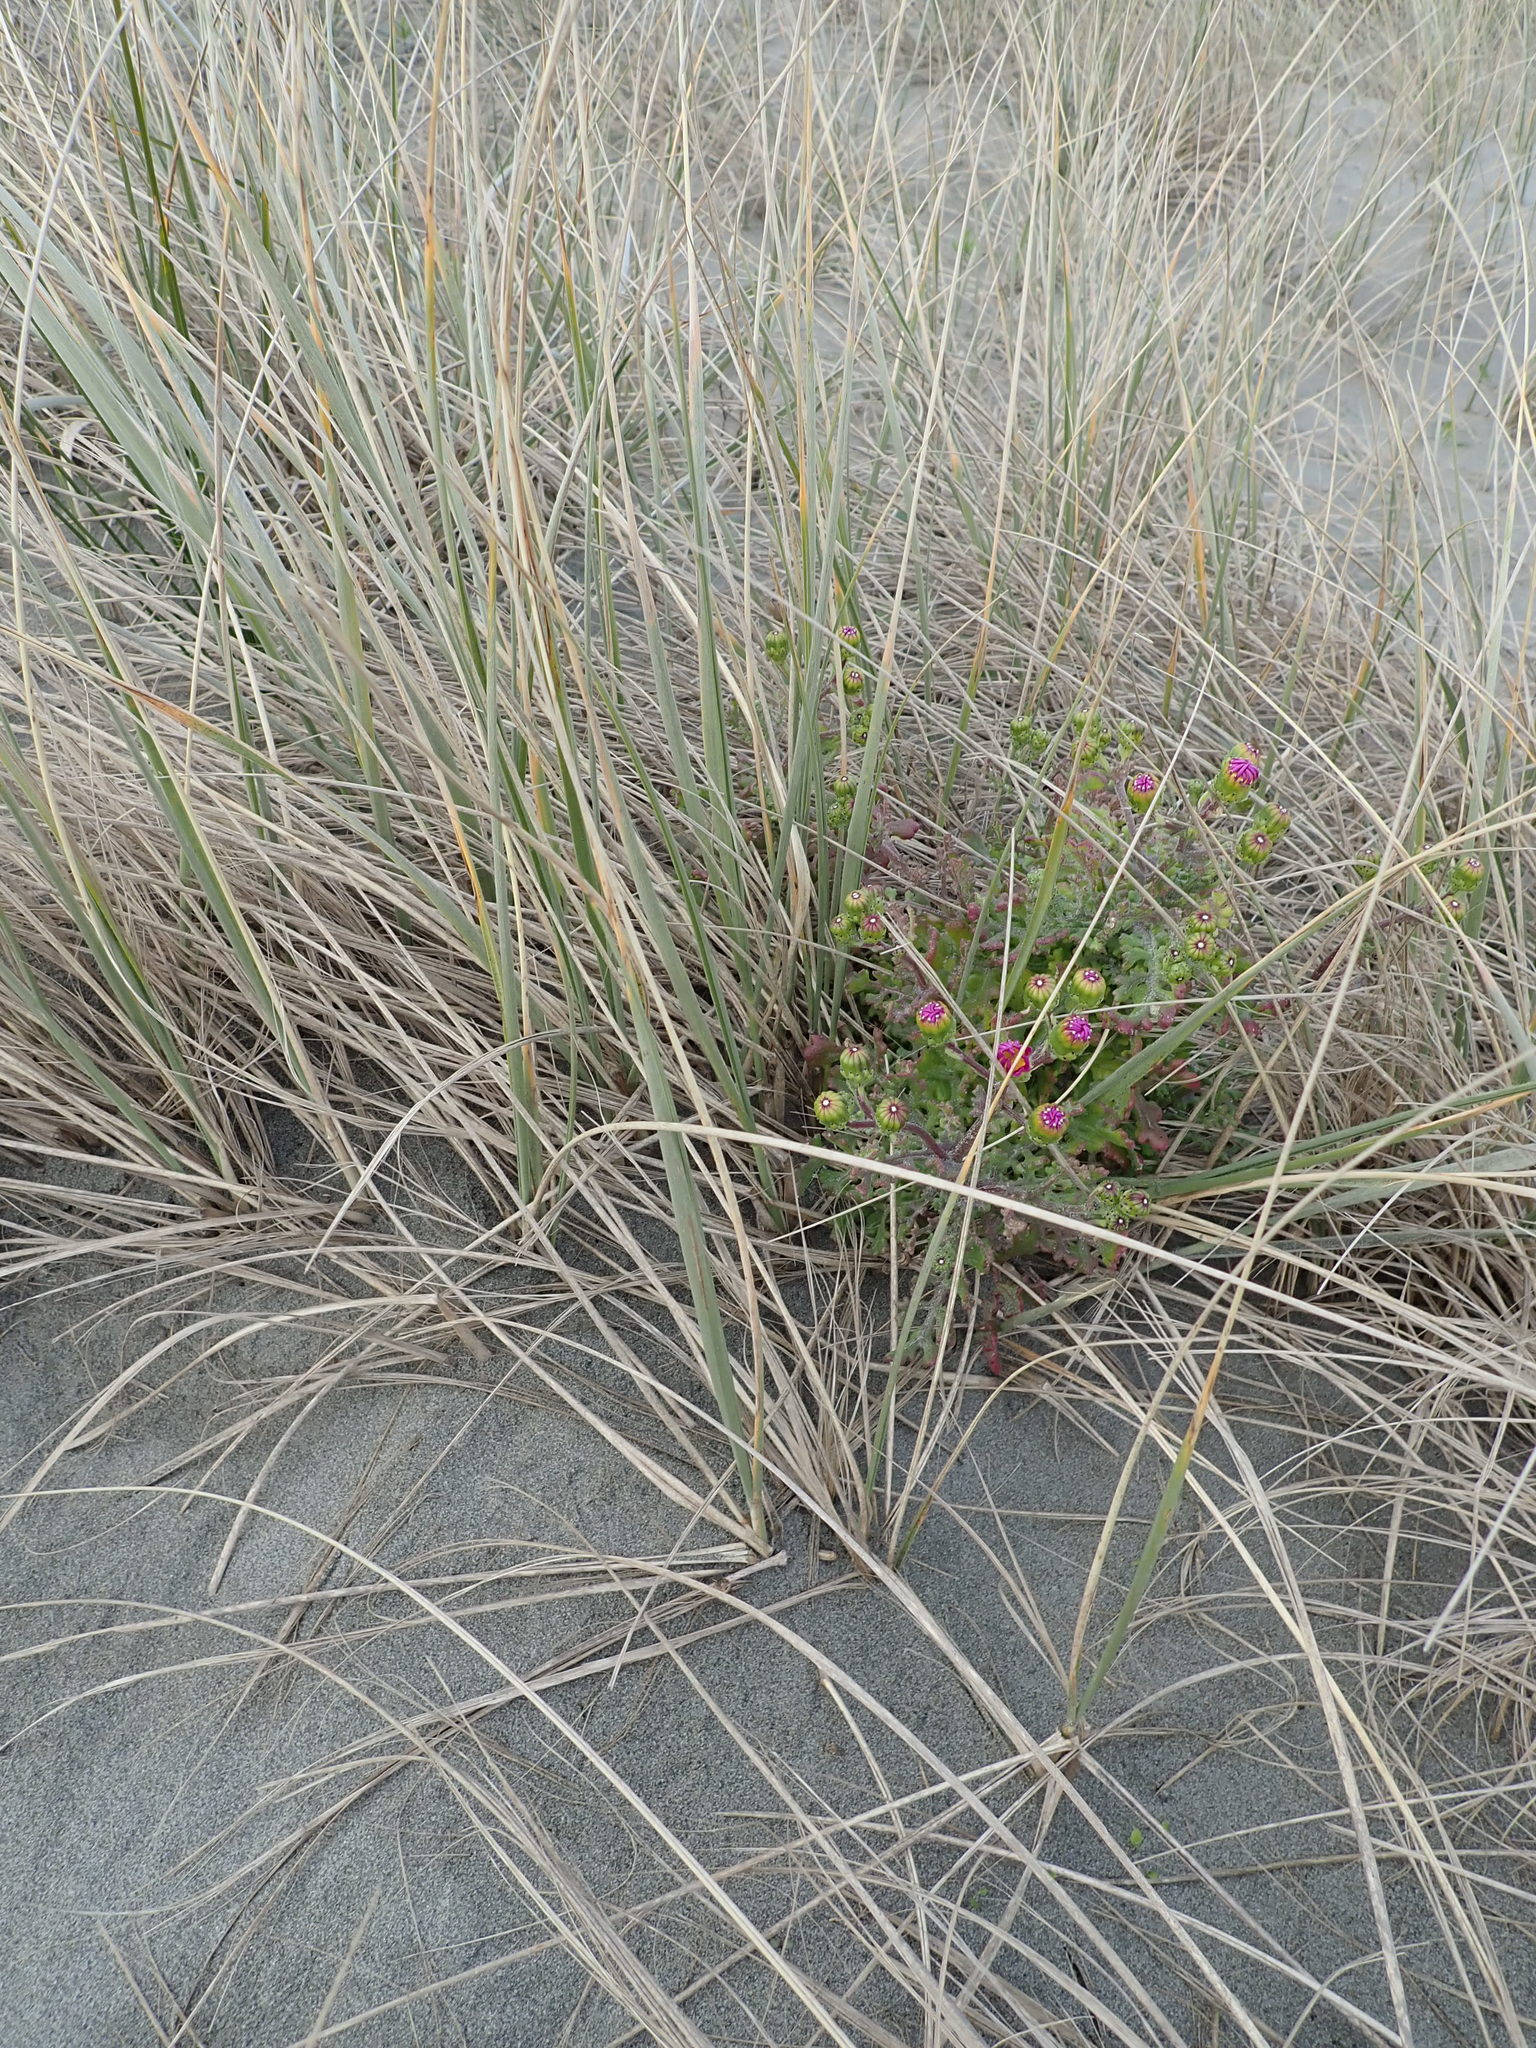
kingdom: Plantae
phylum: Tracheophyta
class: Magnoliopsida
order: Asterales
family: Asteraceae
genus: Senecio
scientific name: Senecio elegans
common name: Purple groundsel
